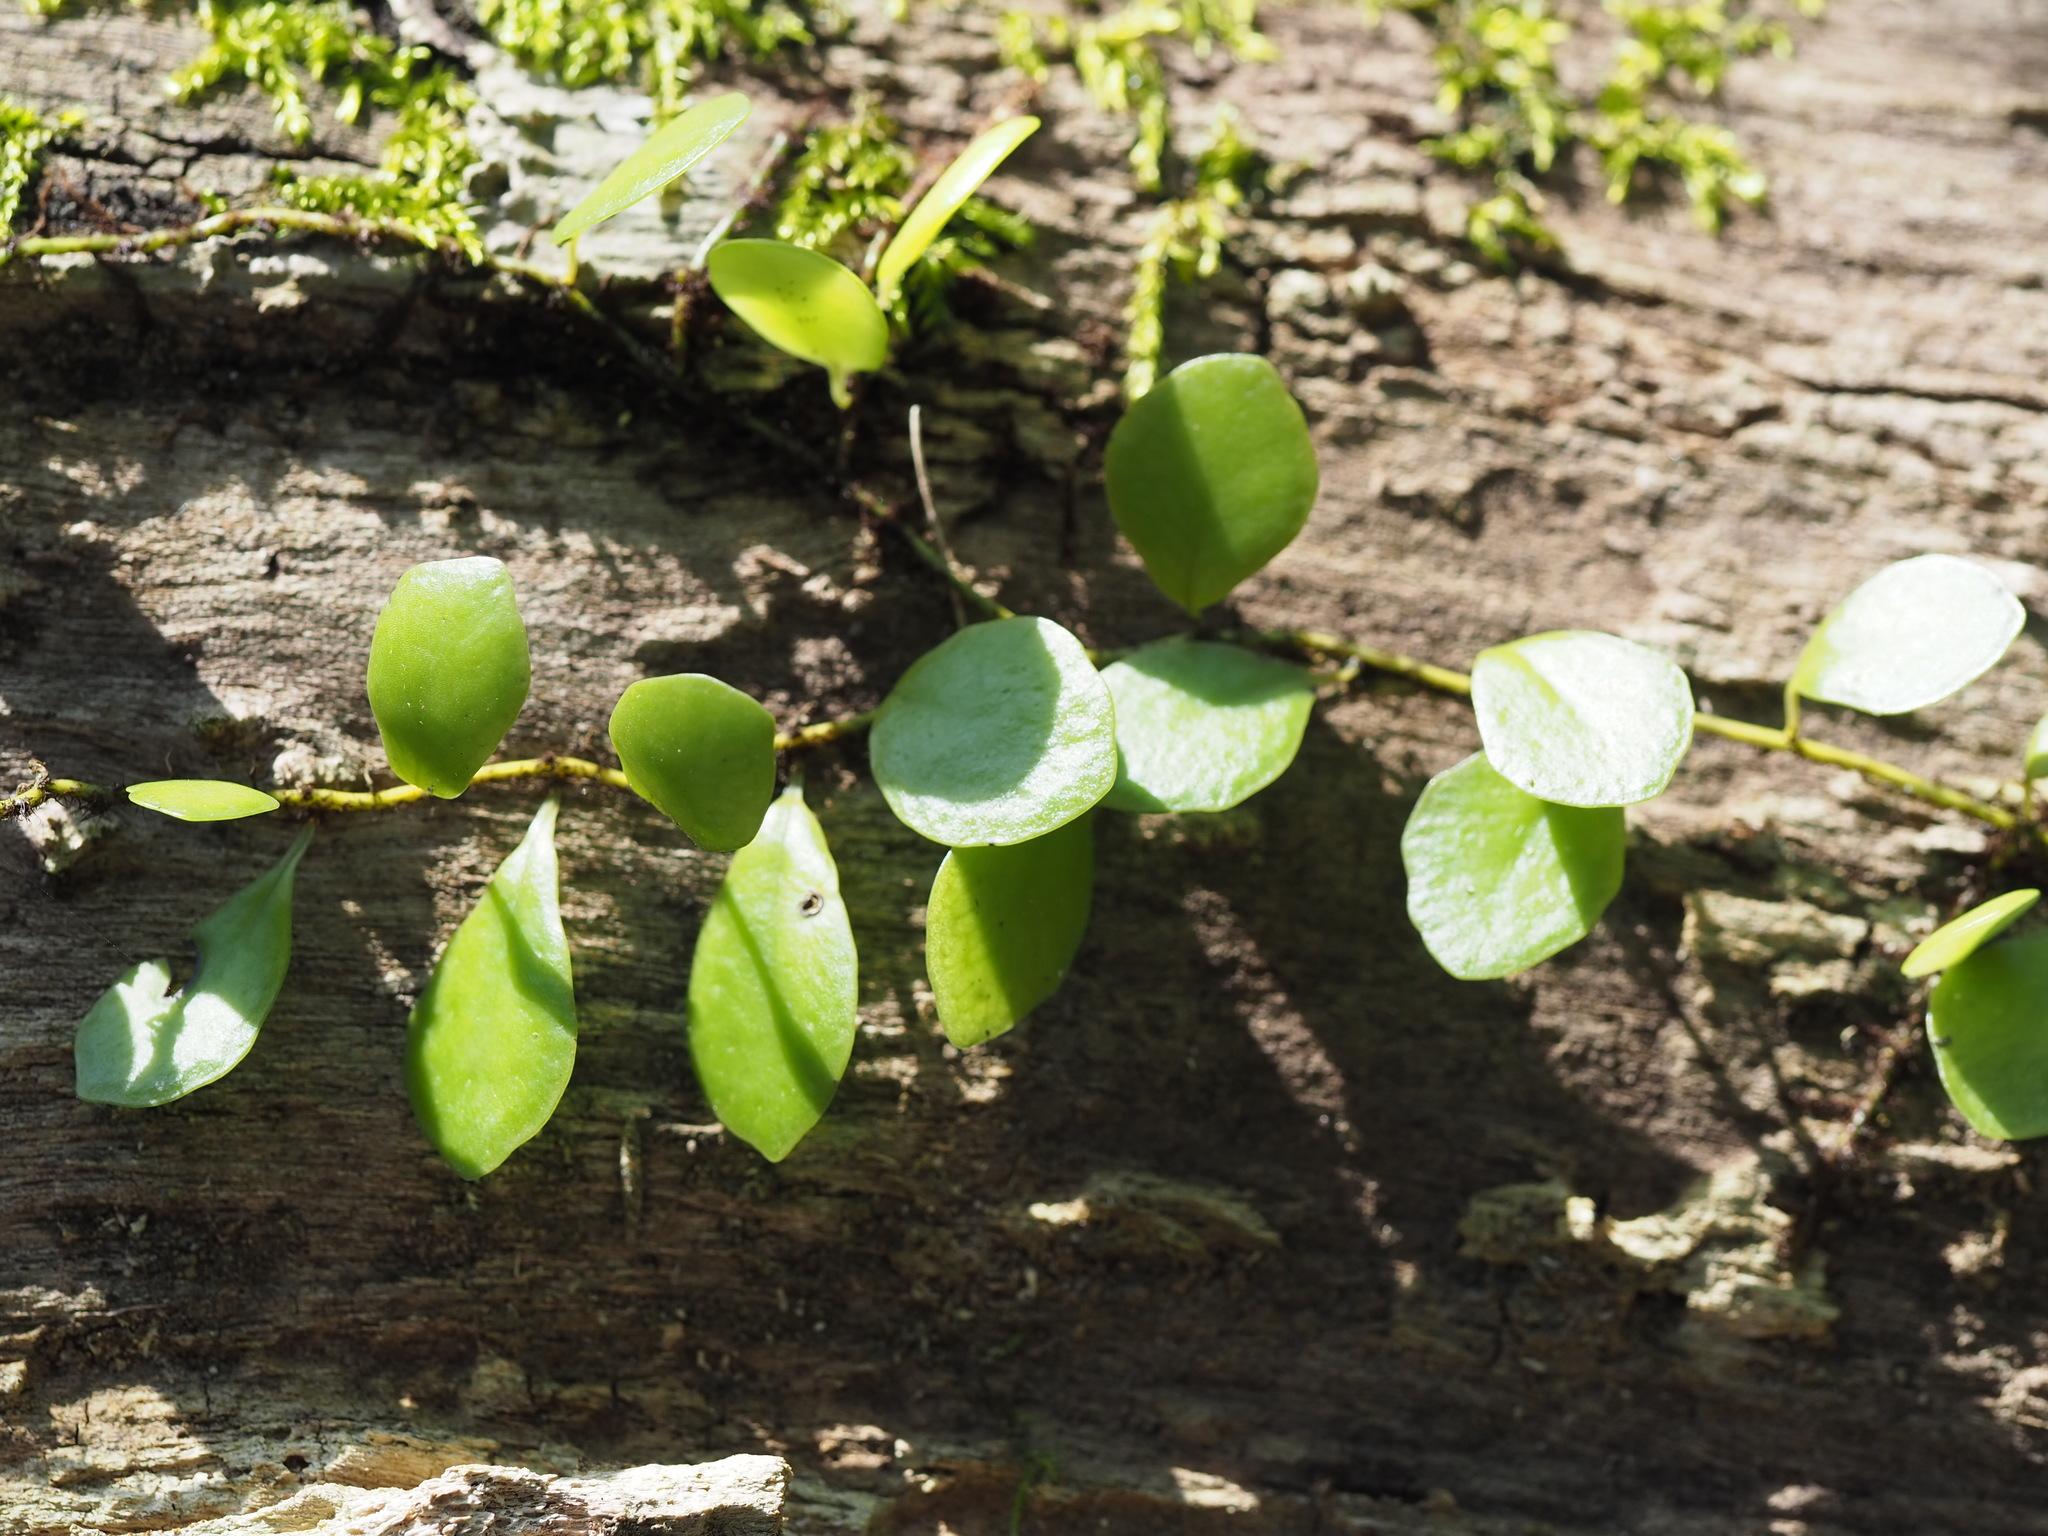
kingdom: Plantae
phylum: Tracheophyta
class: Polypodiopsida
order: Polypodiales
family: Polypodiaceae
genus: Lepisorus
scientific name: Lepisorus microphyllus
